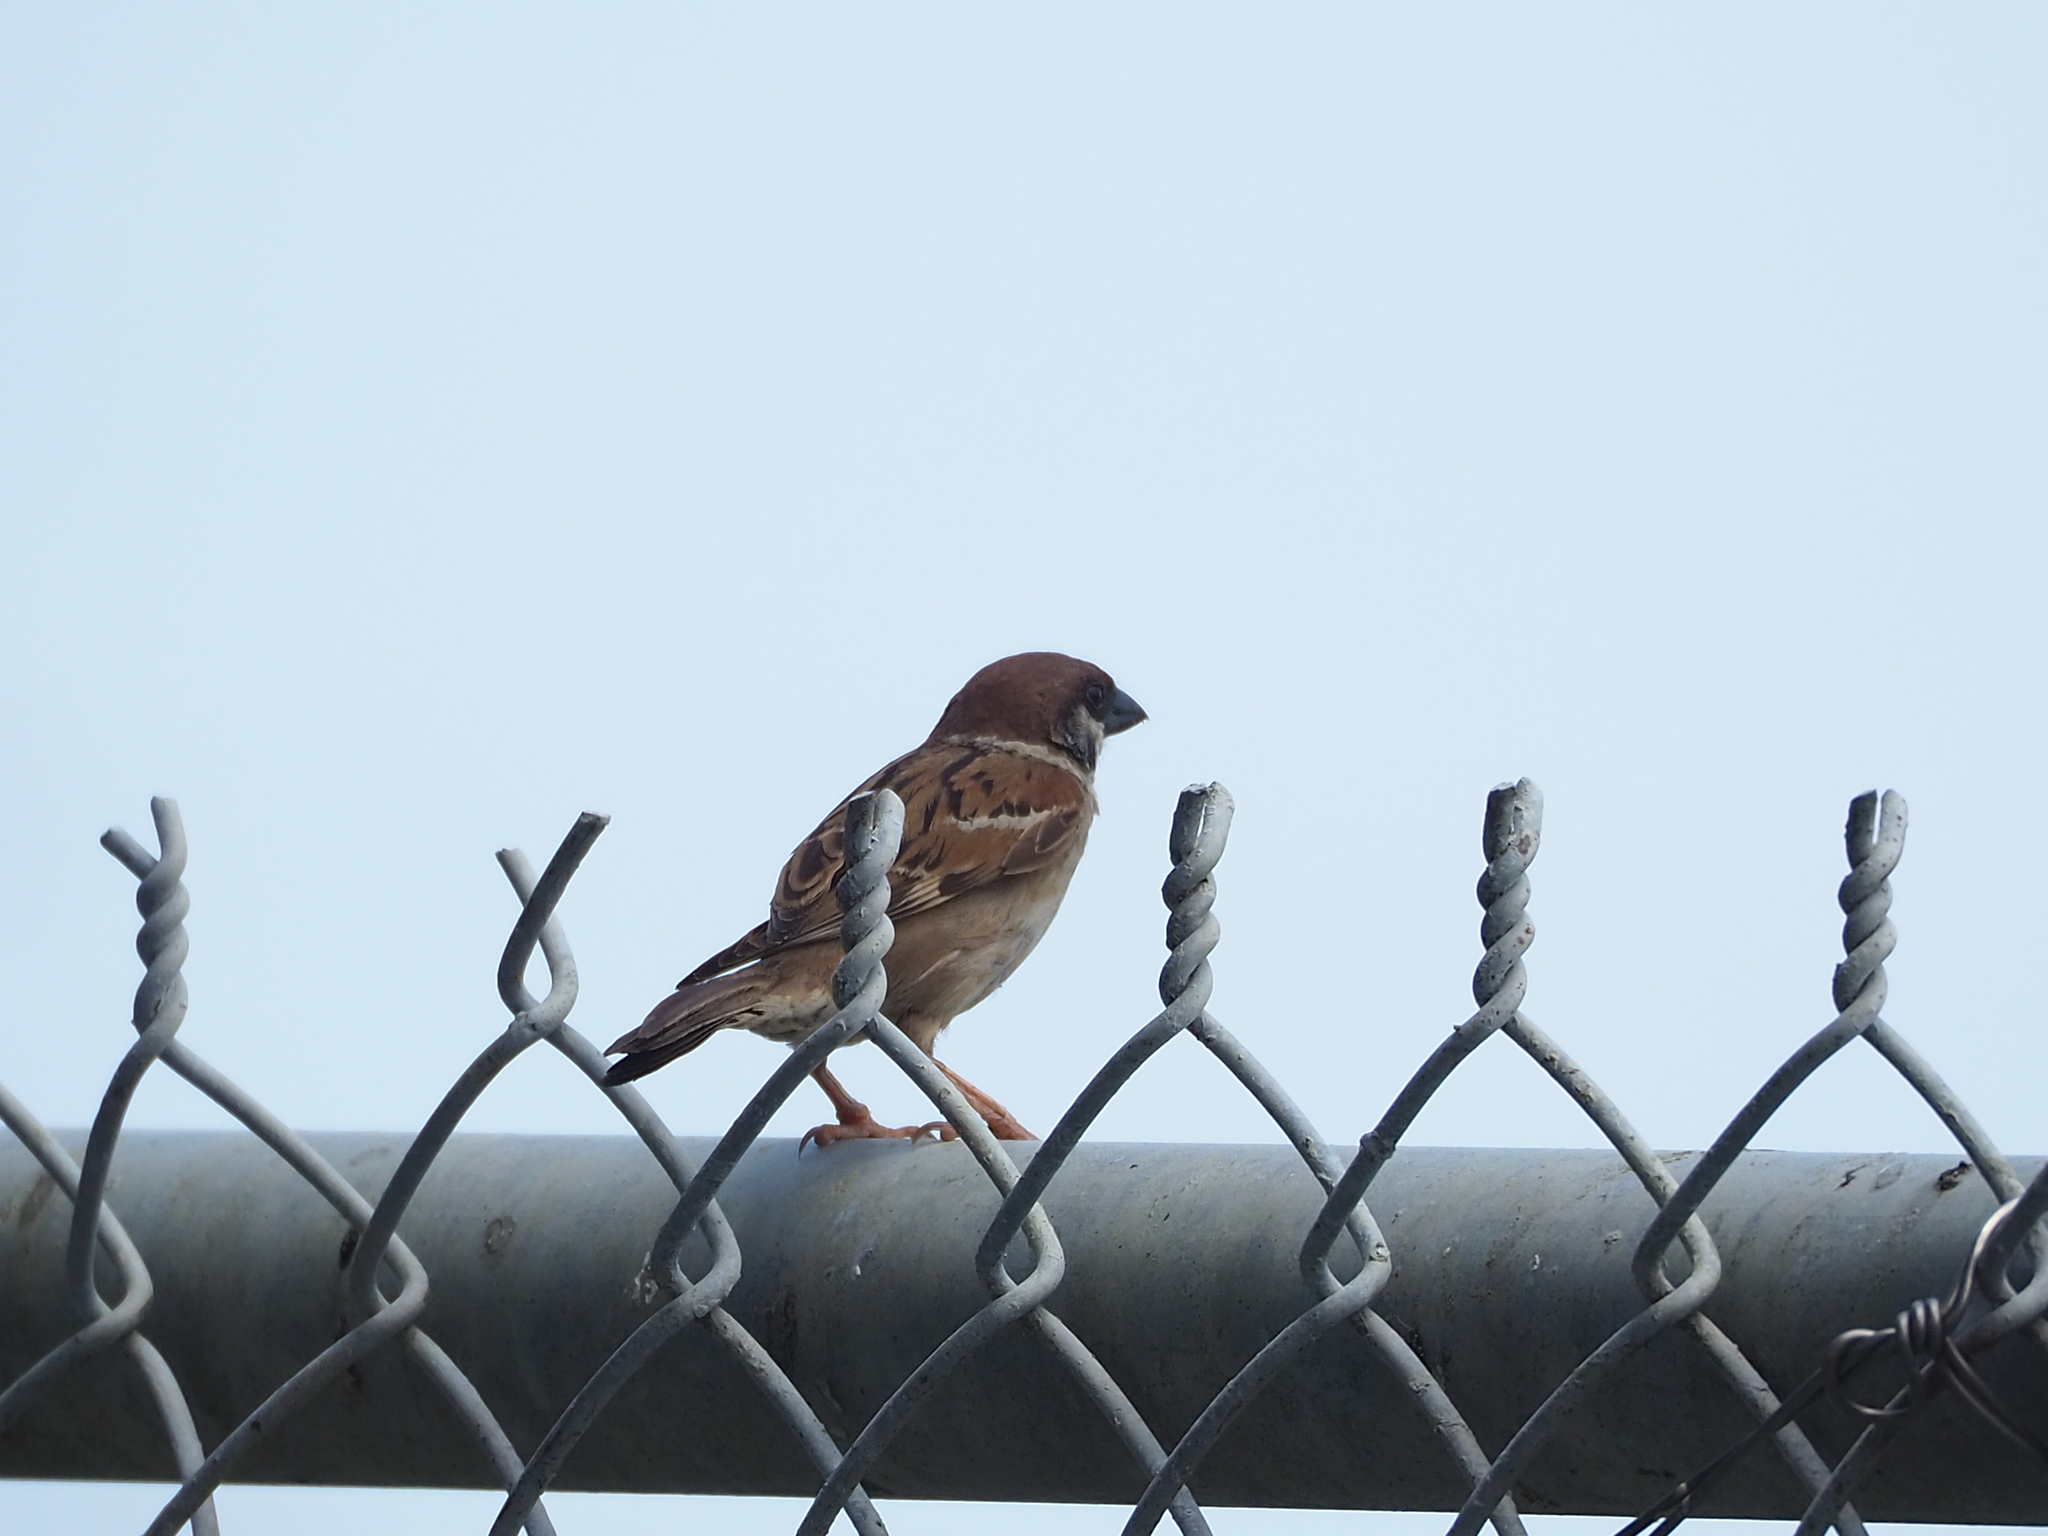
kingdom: Animalia
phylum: Chordata
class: Aves
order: Passeriformes
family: Passeridae
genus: Passer
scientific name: Passer montanus
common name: Eurasian tree sparrow
